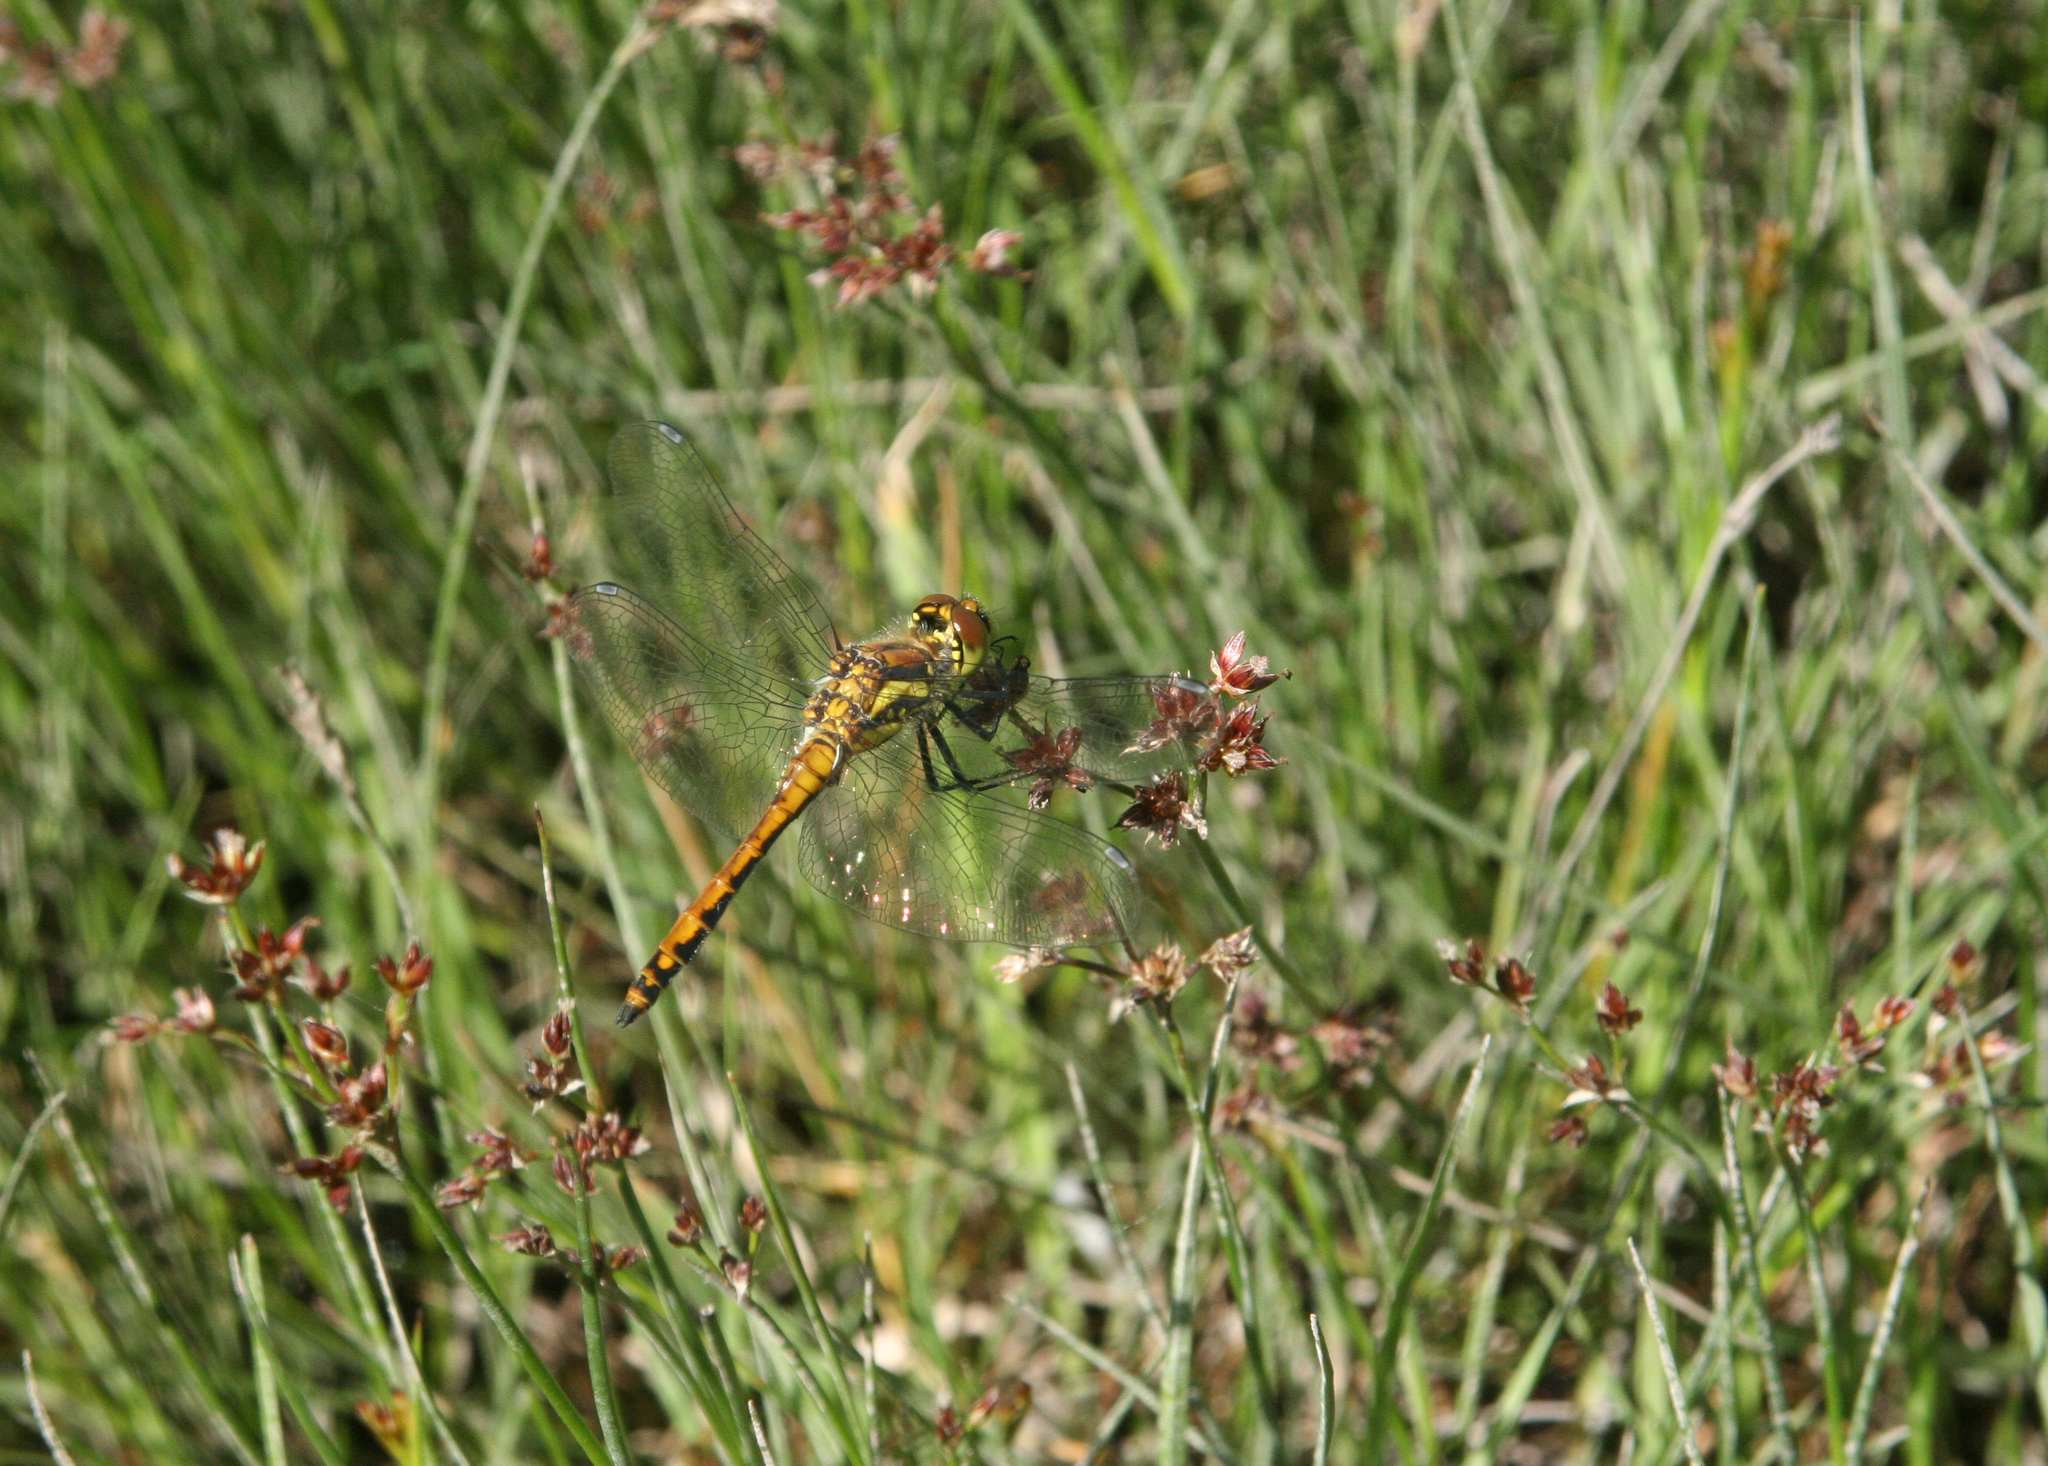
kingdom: Plantae
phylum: Tracheophyta
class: Liliopsida
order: Poales
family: Juncaceae
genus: Juncus
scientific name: Juncus articulatus
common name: Jointed rush
